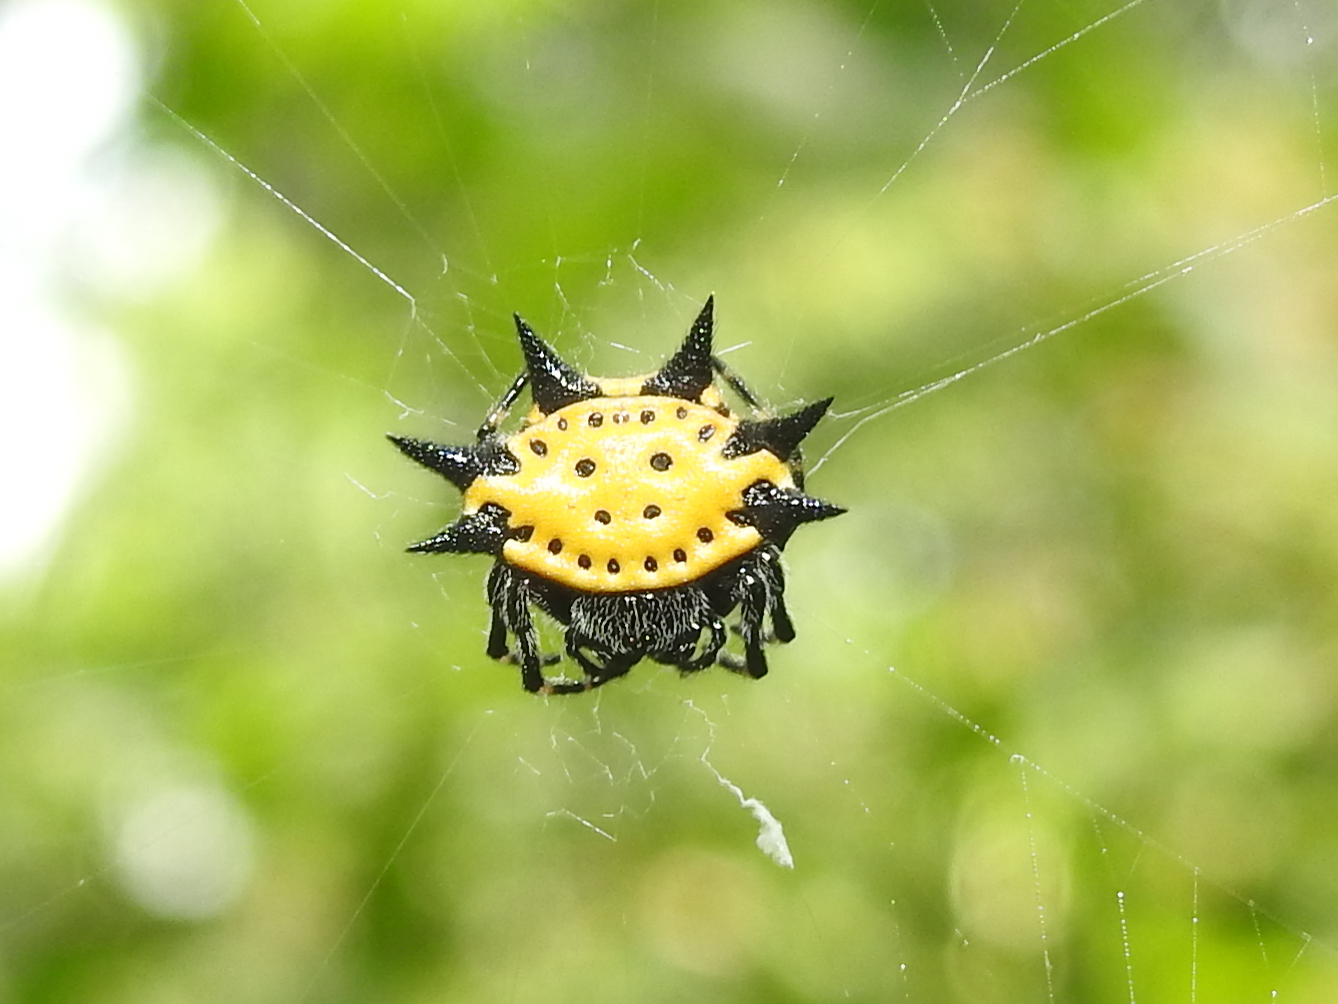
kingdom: Animalia
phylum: Arthropoda
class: Arachnida
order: Araneae
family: Araneidae
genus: Gasteracantha
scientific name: Gasteracantha cancriformis
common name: Orb weavers
